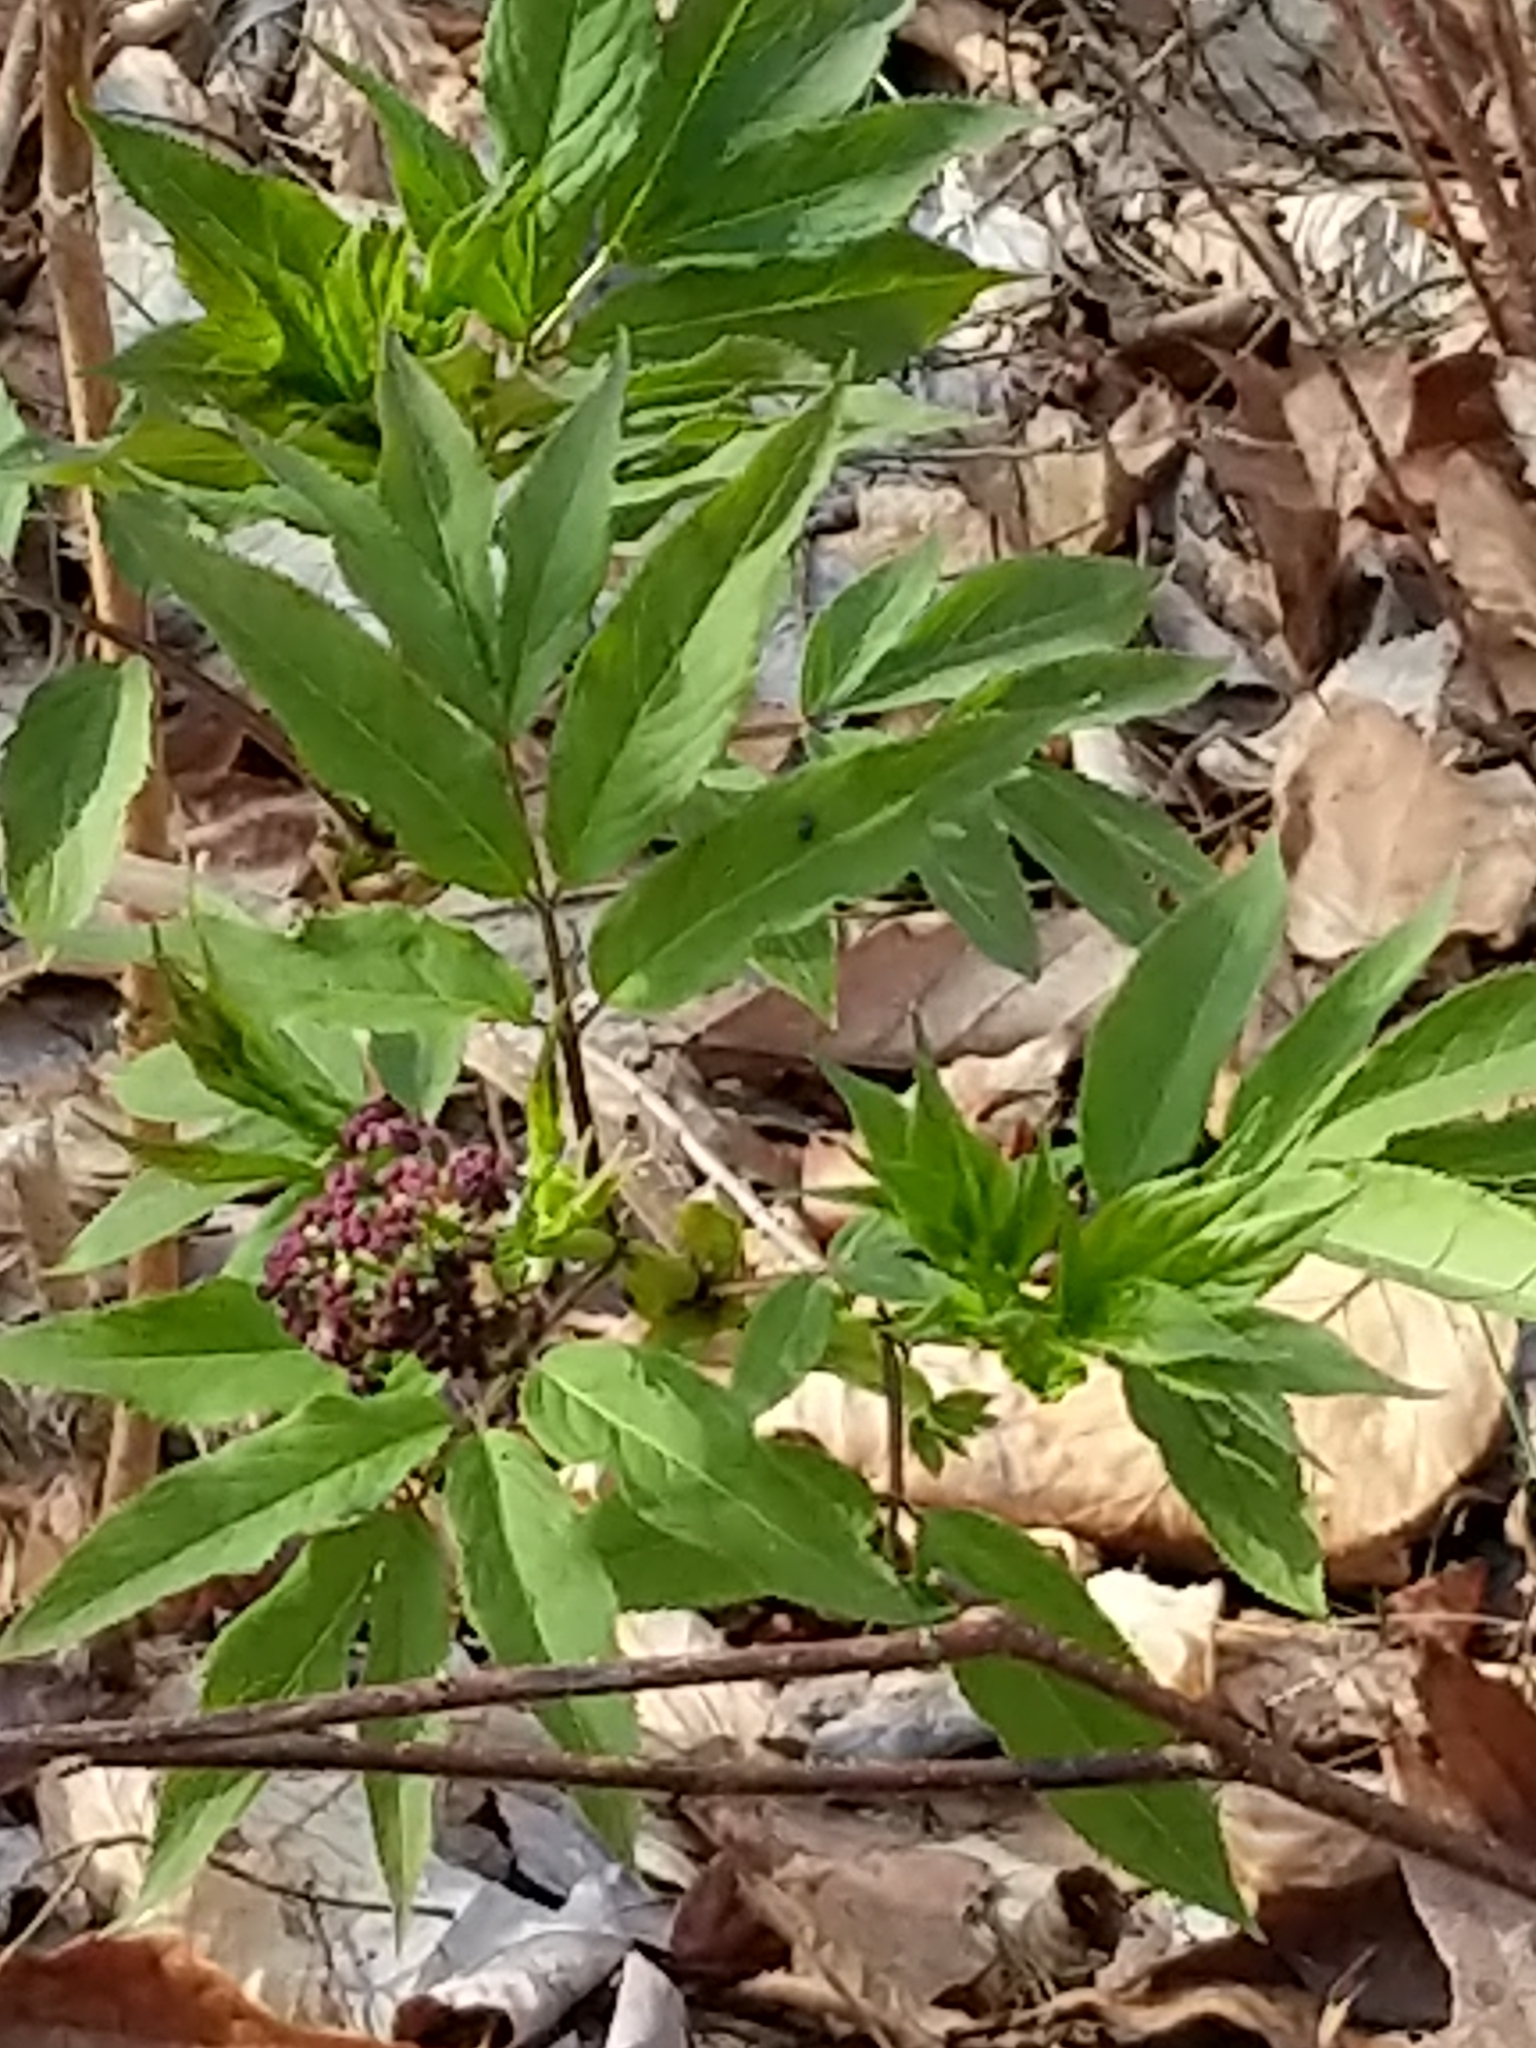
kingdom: Plantae
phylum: Tracheophyta
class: Magnoliopsida
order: Dipsacales
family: Viburnaceae
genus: Sambucus
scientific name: Sambucus racemosa
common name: Red-berried elder
